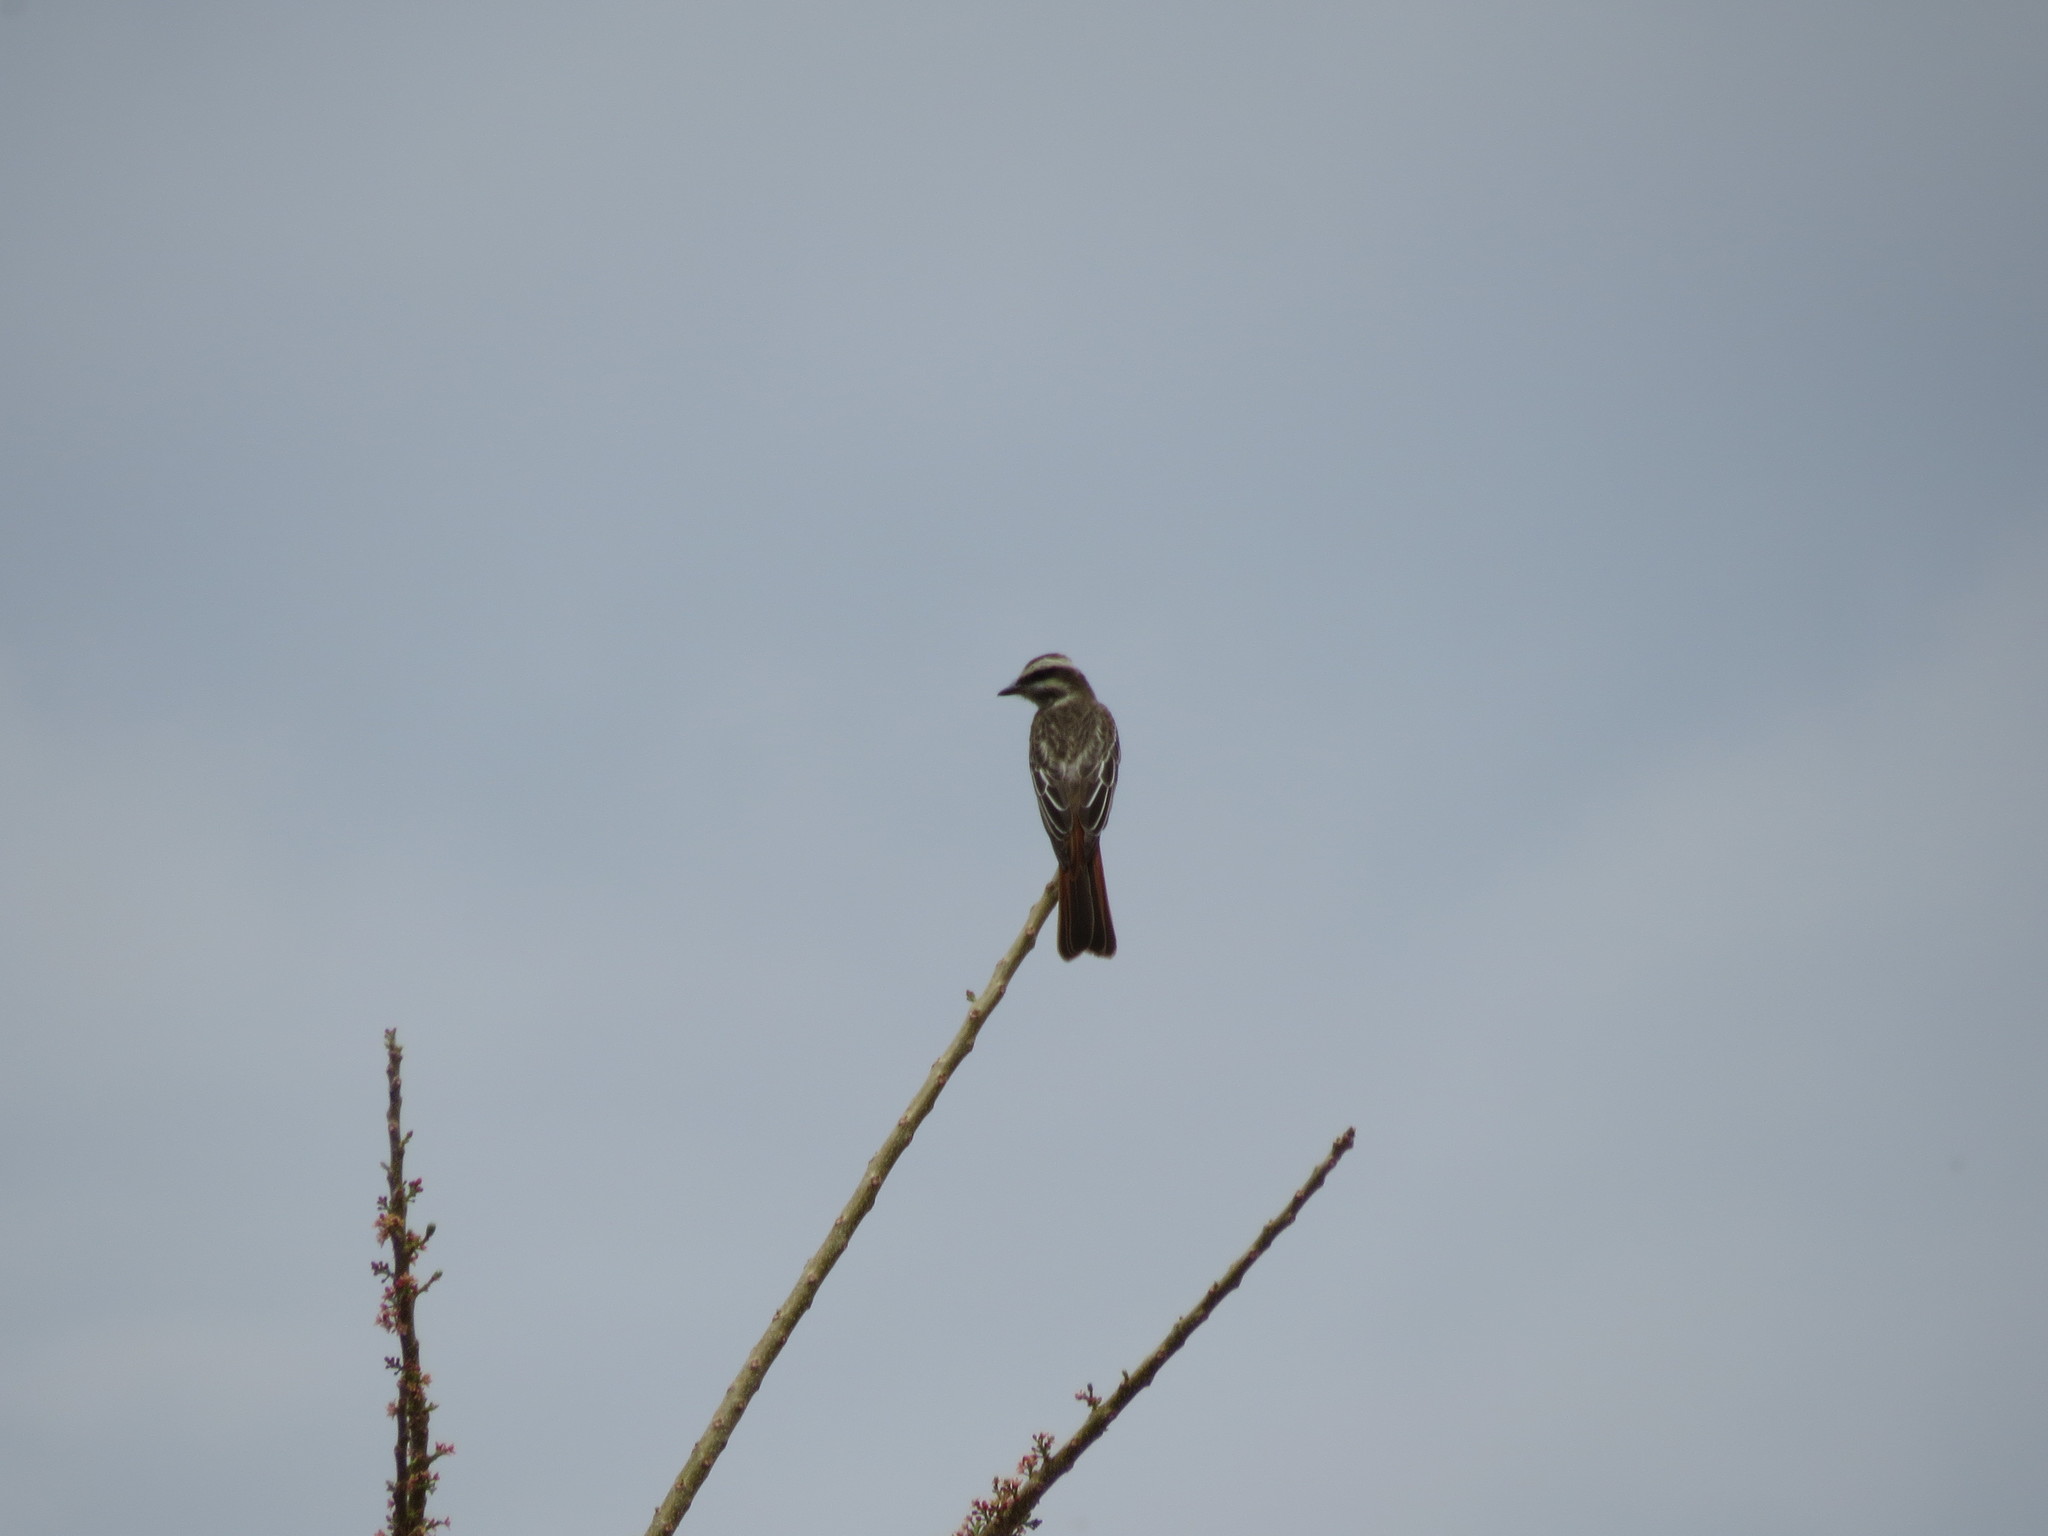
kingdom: Animalia
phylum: Chordata
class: Aves
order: Passeriformes
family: Tyrannidae
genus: Empidonomus
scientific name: Empidonomus varius
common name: Variegated flycatcher
